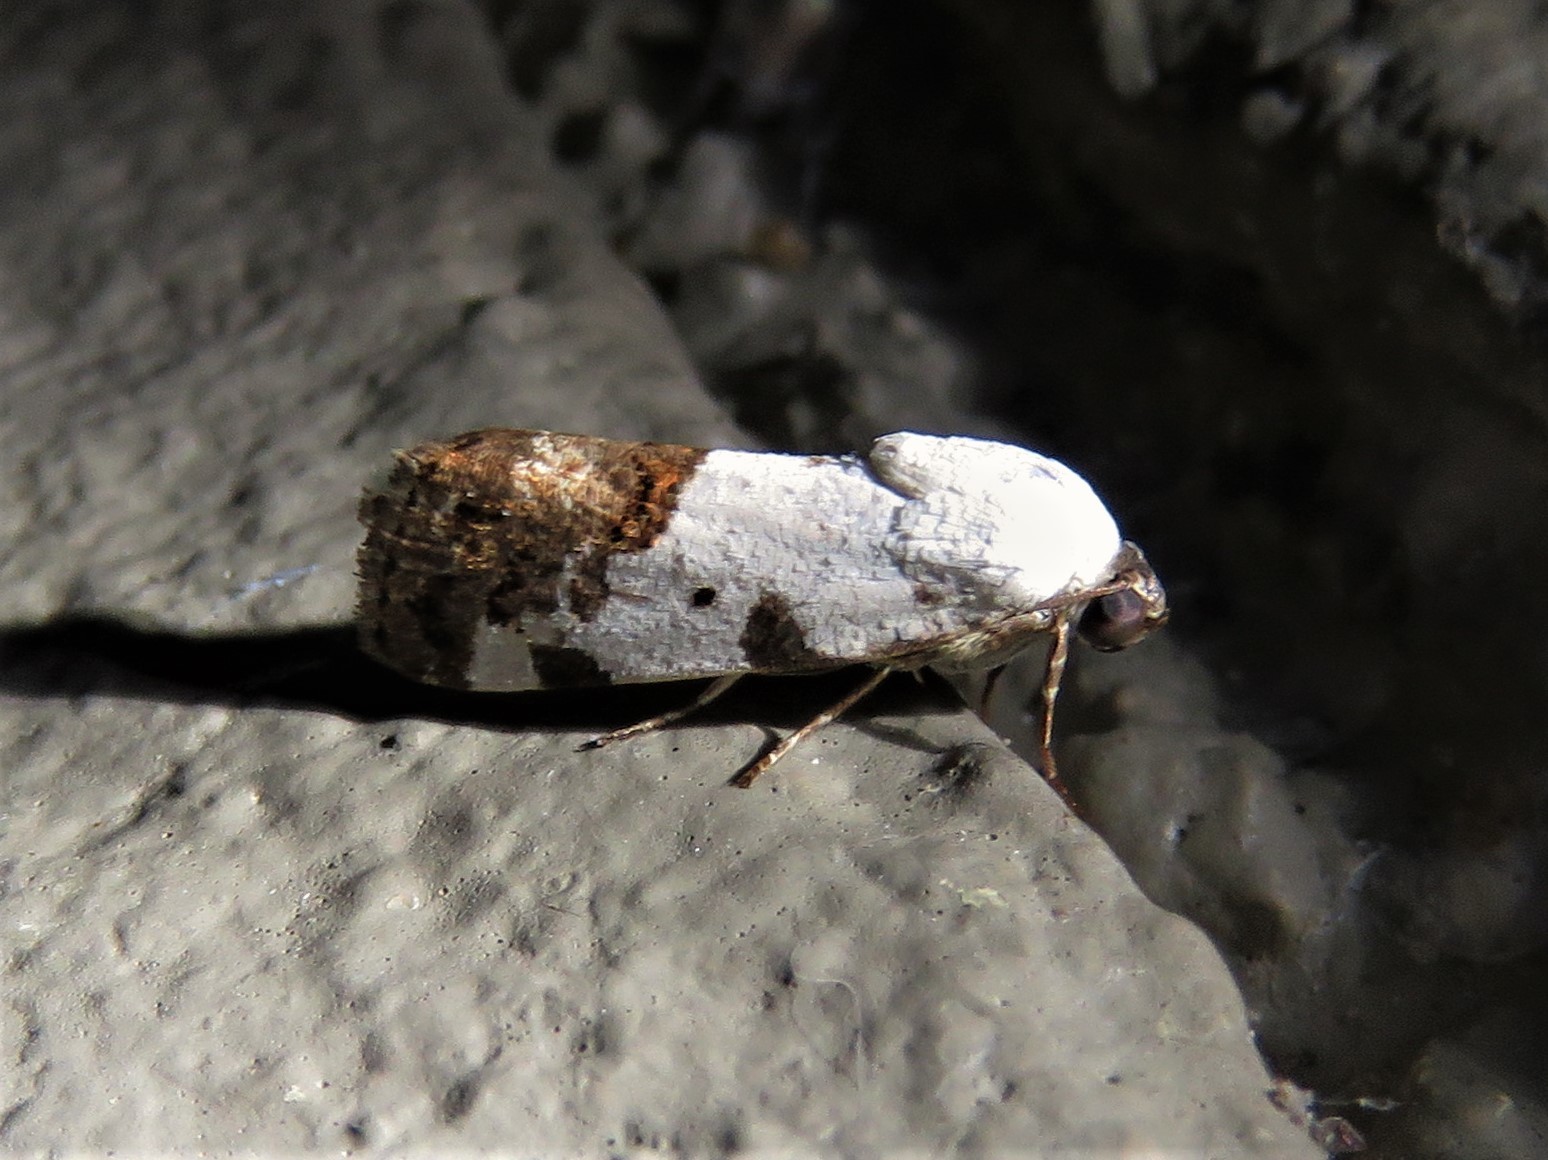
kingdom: Animalia
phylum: Arthropoda
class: Insecta
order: Lepidoptera
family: Noctuidae
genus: Acontia
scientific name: Acontia aprica
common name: Nun
